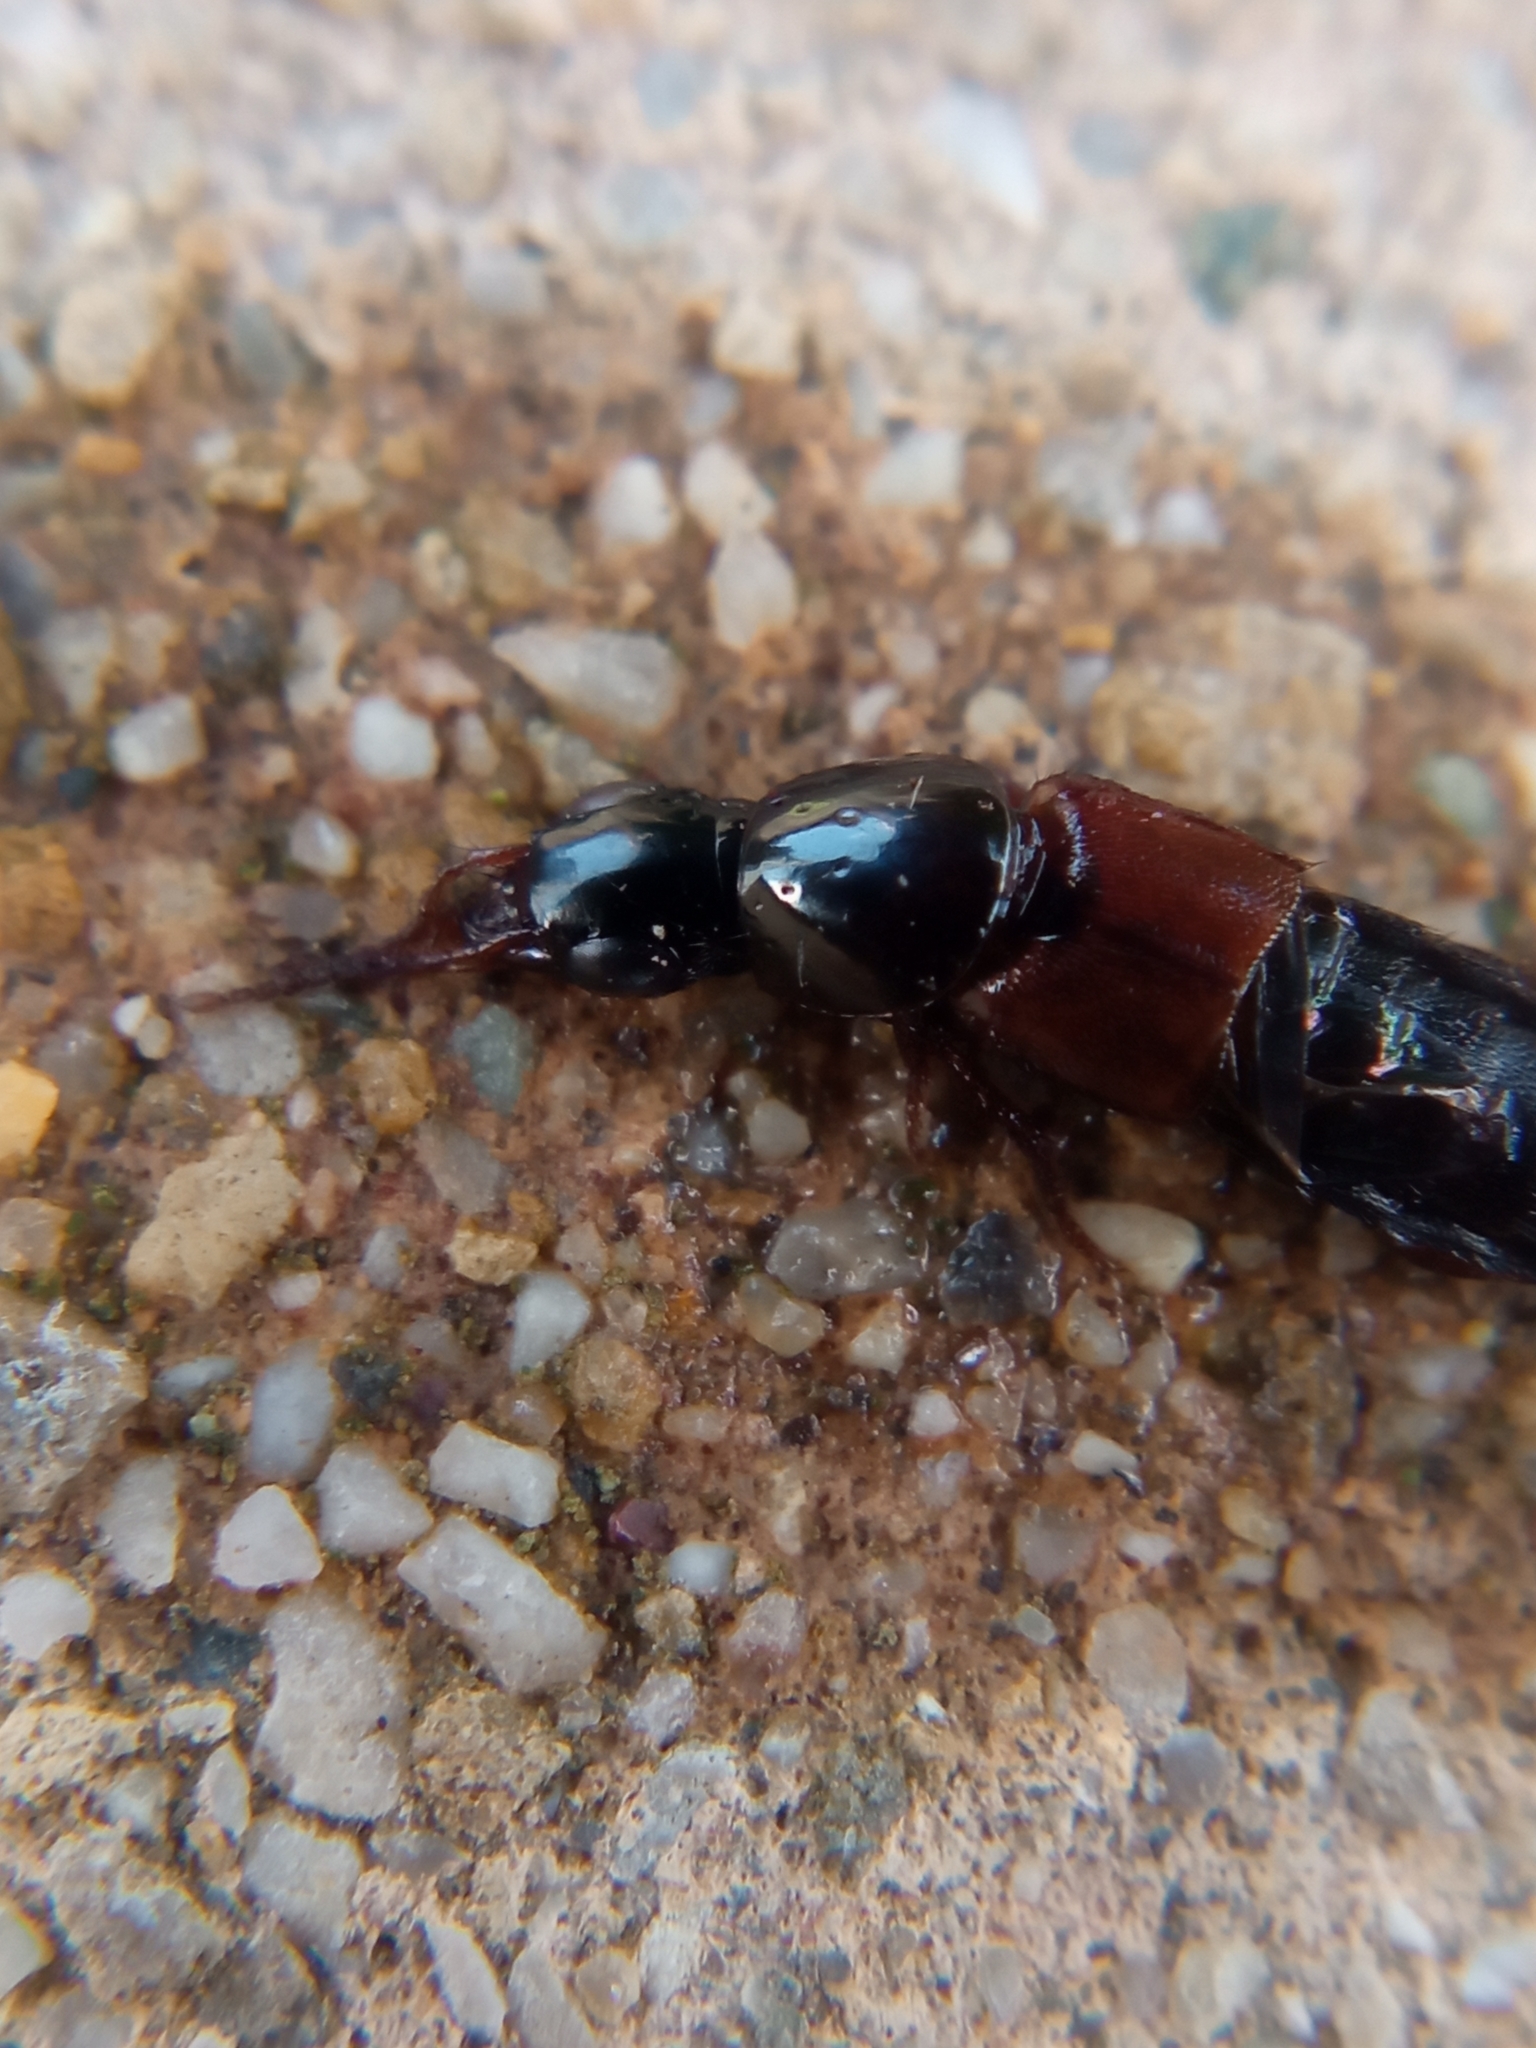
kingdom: Animalia
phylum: Arthropoda
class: Insecta
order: Coleoptera
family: Staphylinidae
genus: Quedius
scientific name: Quedius picipes
